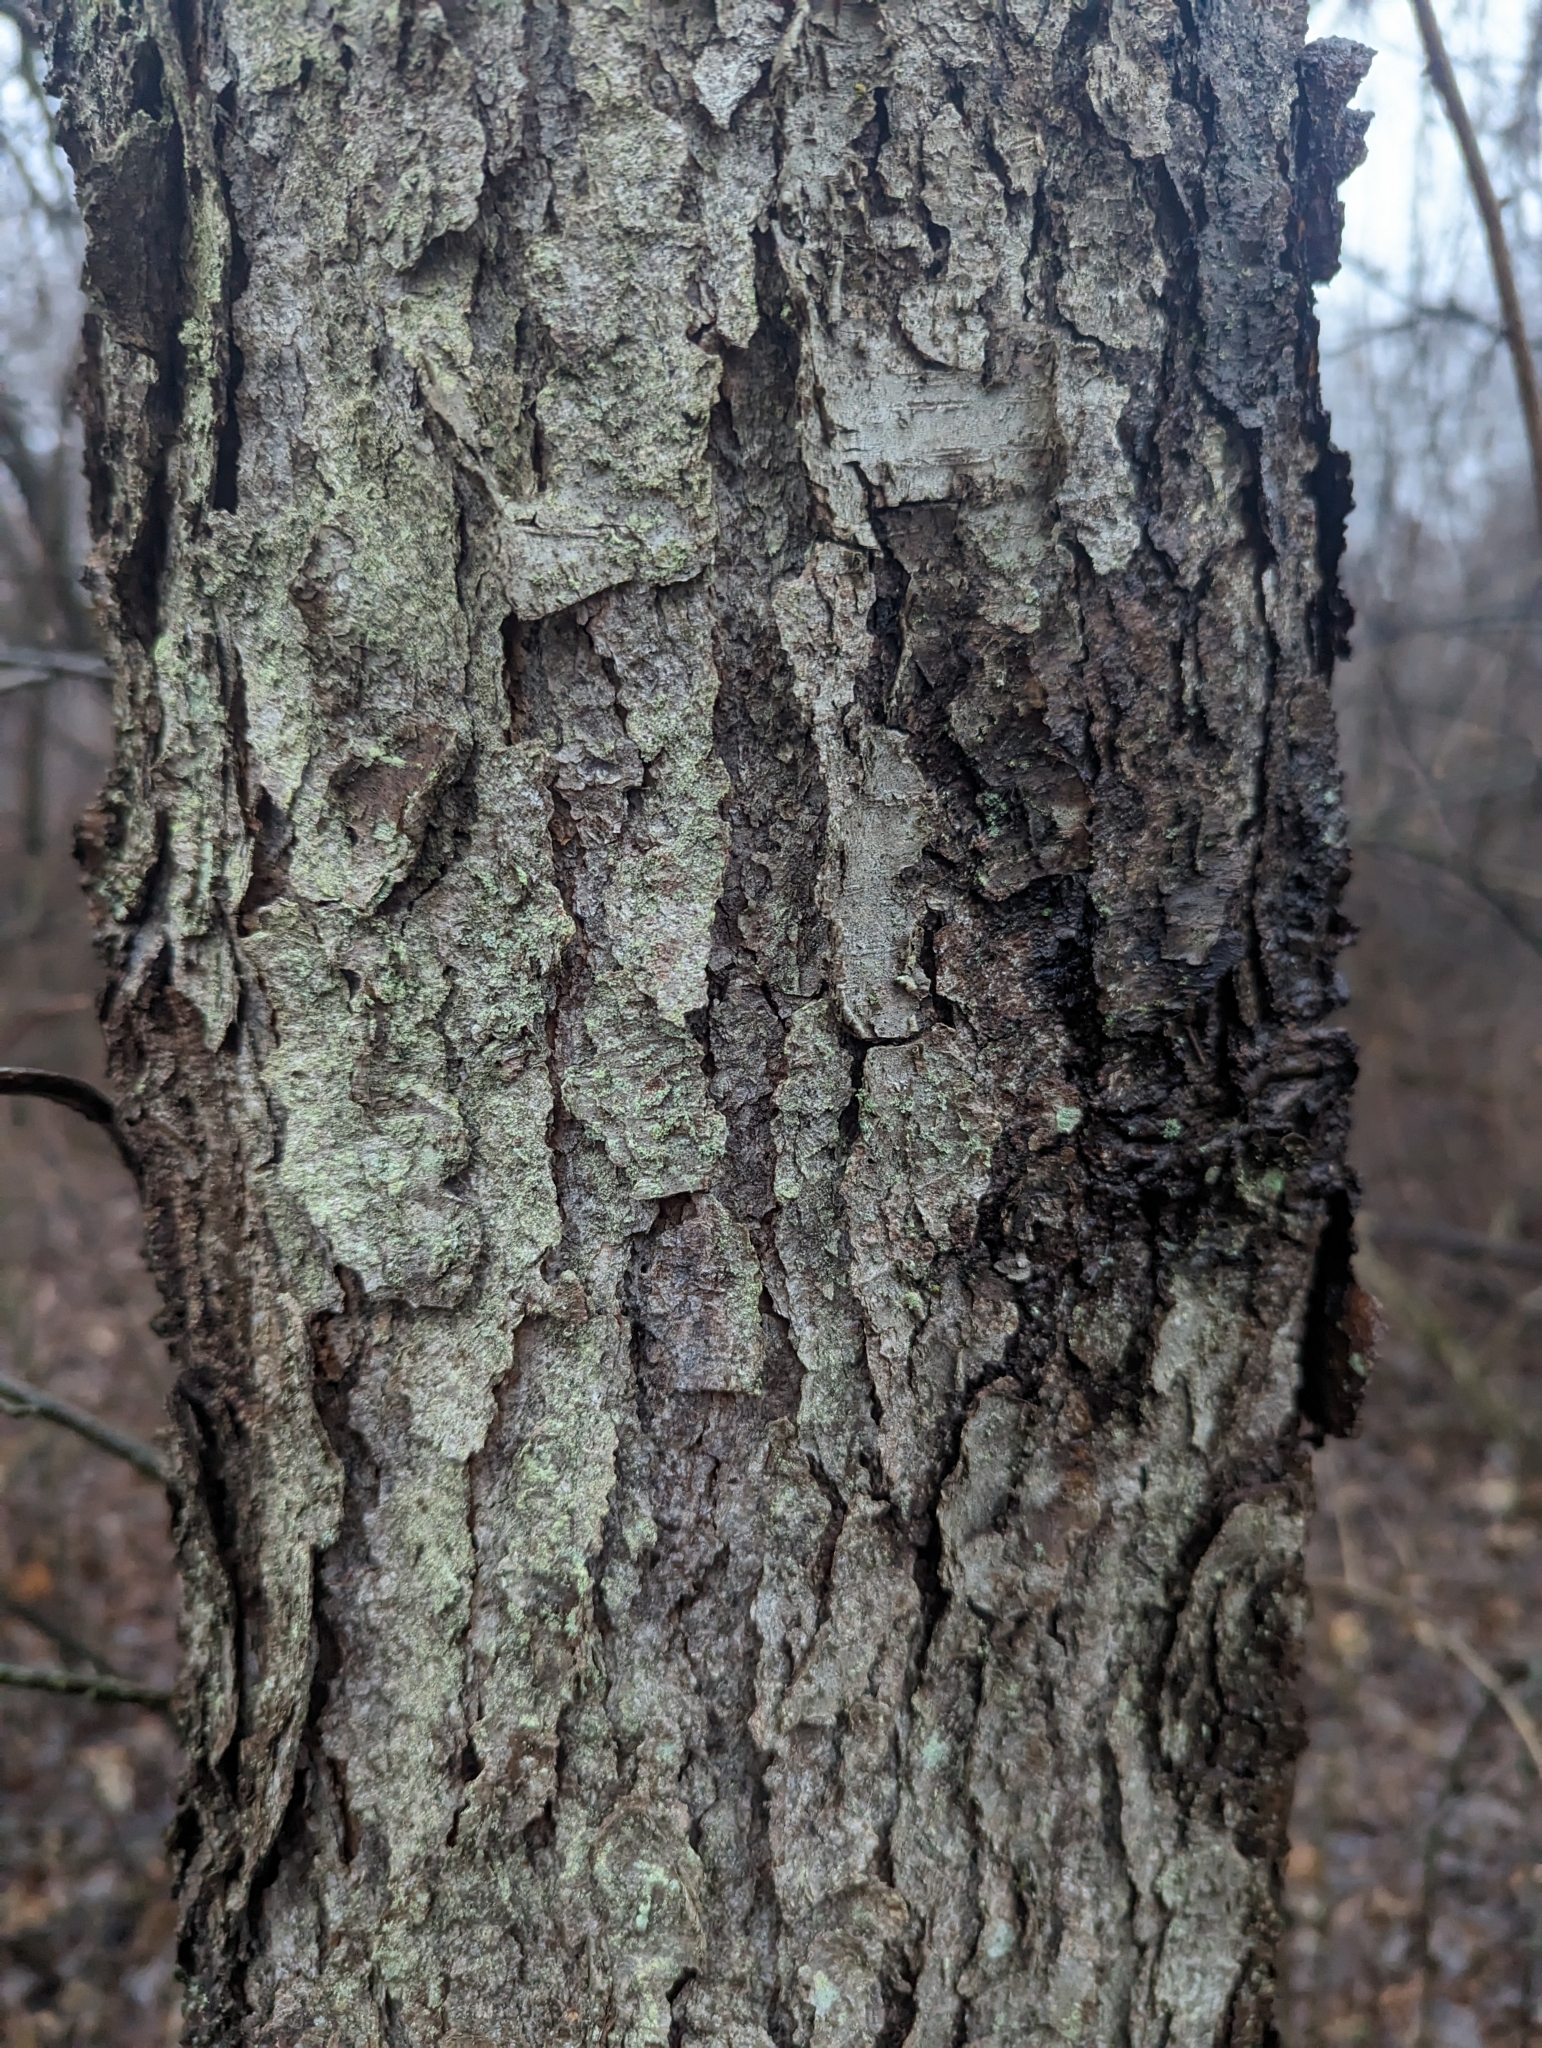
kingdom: Plantae
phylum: Tracheophyta
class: Magnoliopsida
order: Rosales
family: Rosaceae
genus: Prunus
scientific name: Prunus serotina
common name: Black cherry
